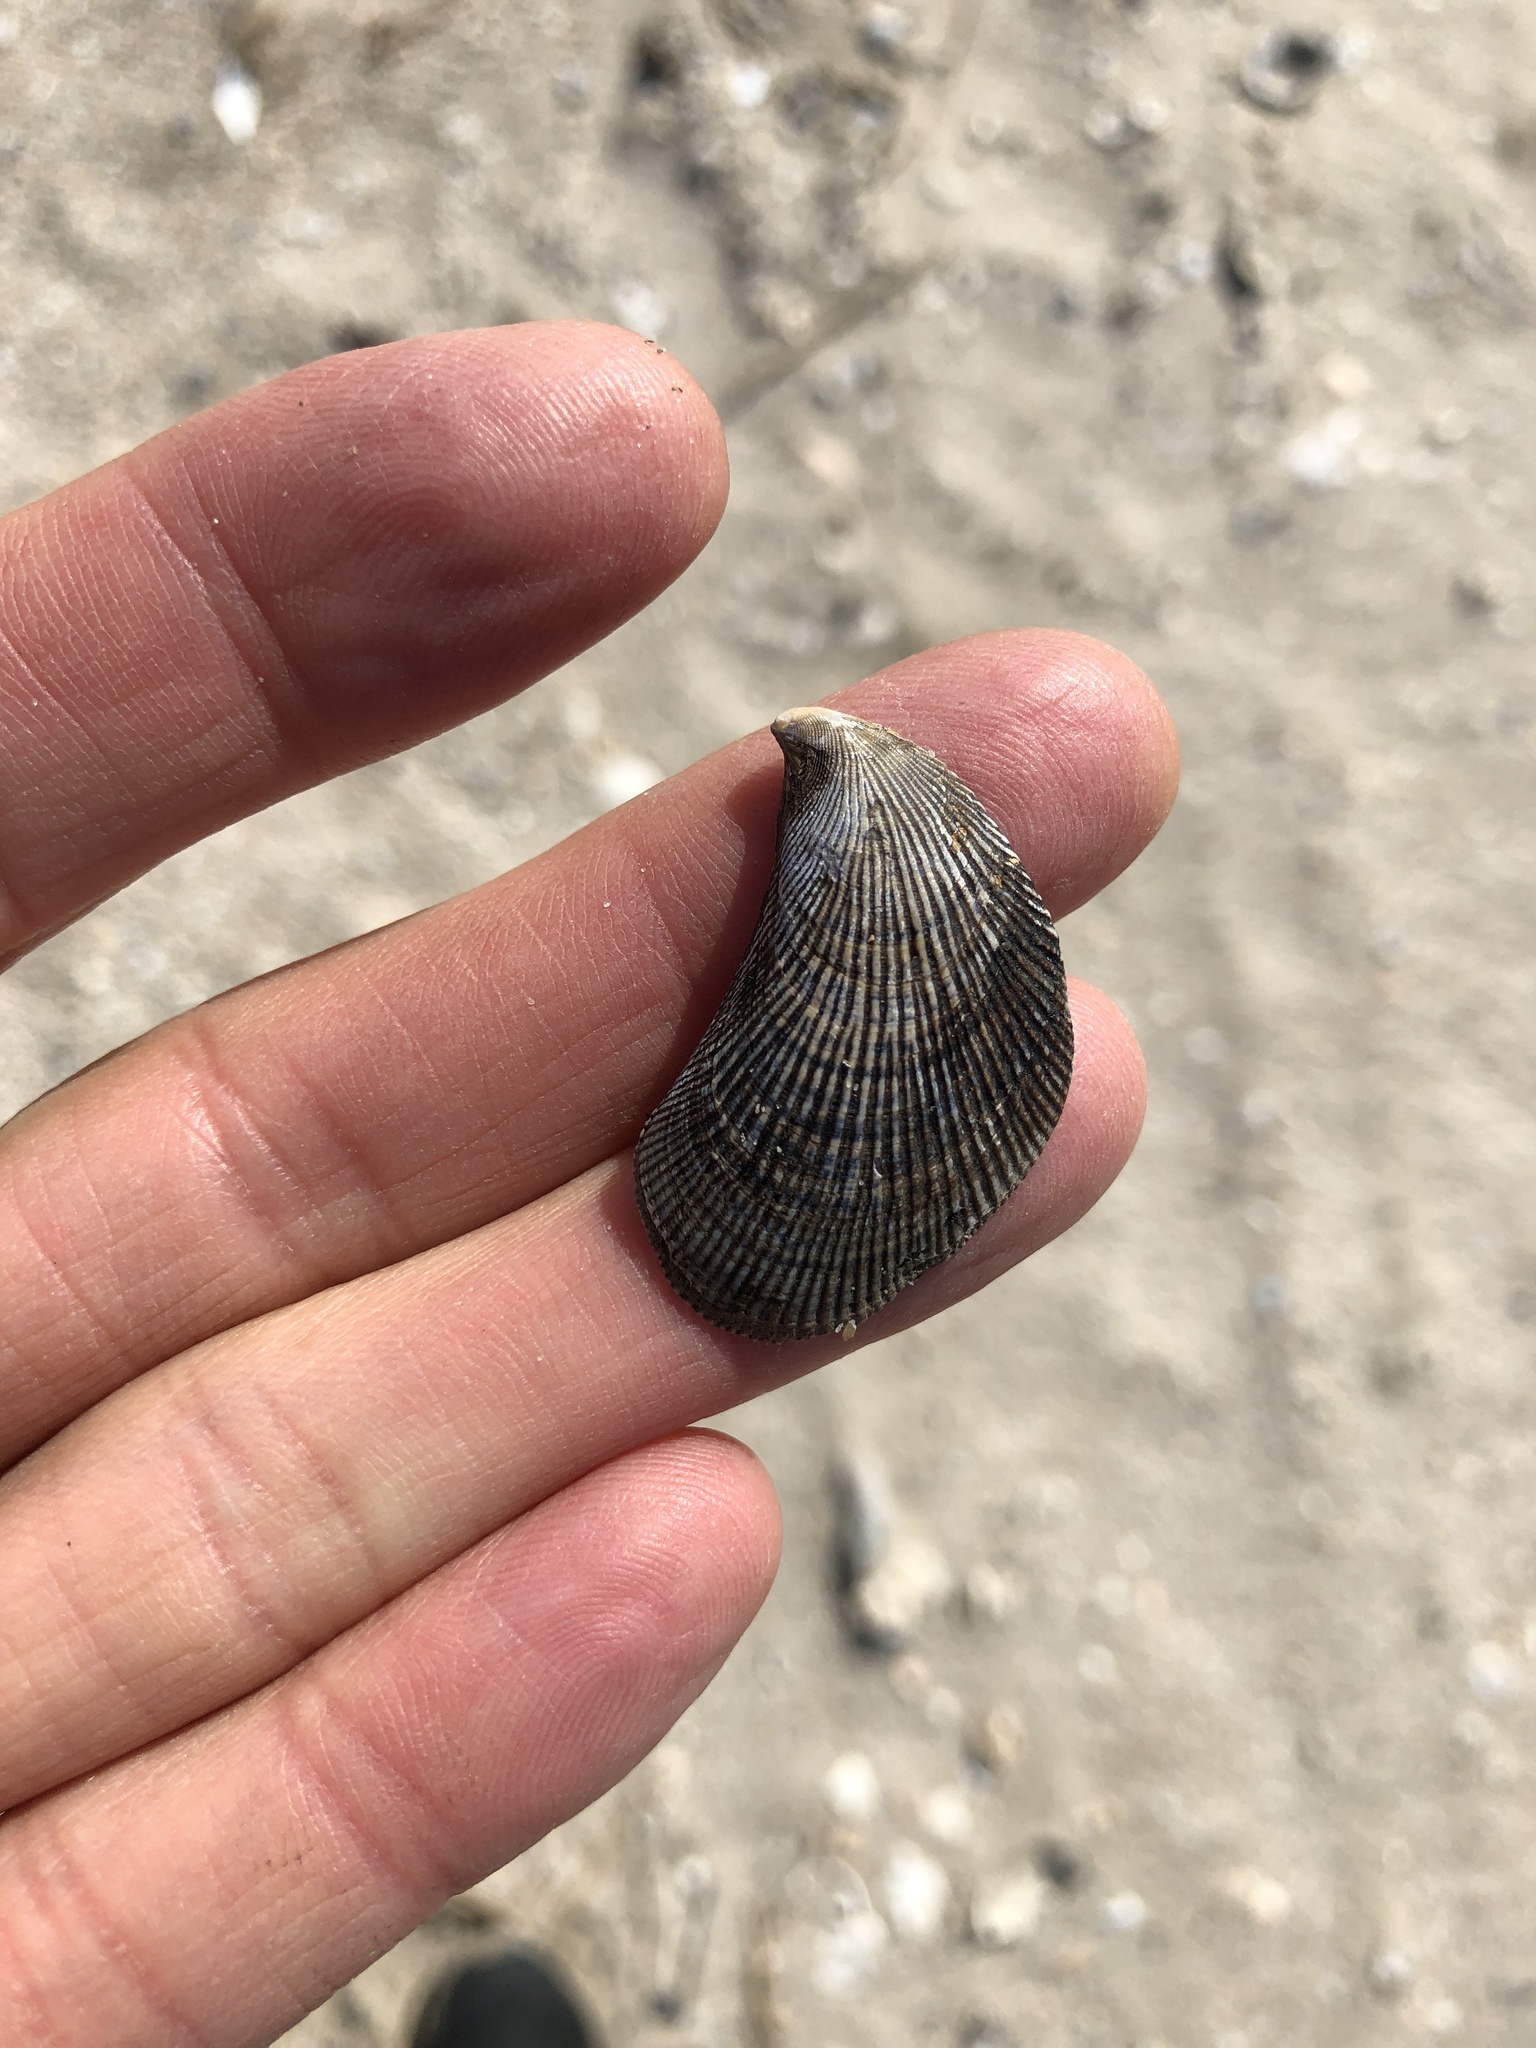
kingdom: Animalia
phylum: Mollusca
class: Bivalvia
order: Mytilida
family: Mytilidae
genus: Ischadium
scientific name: Ischadium recurvum
